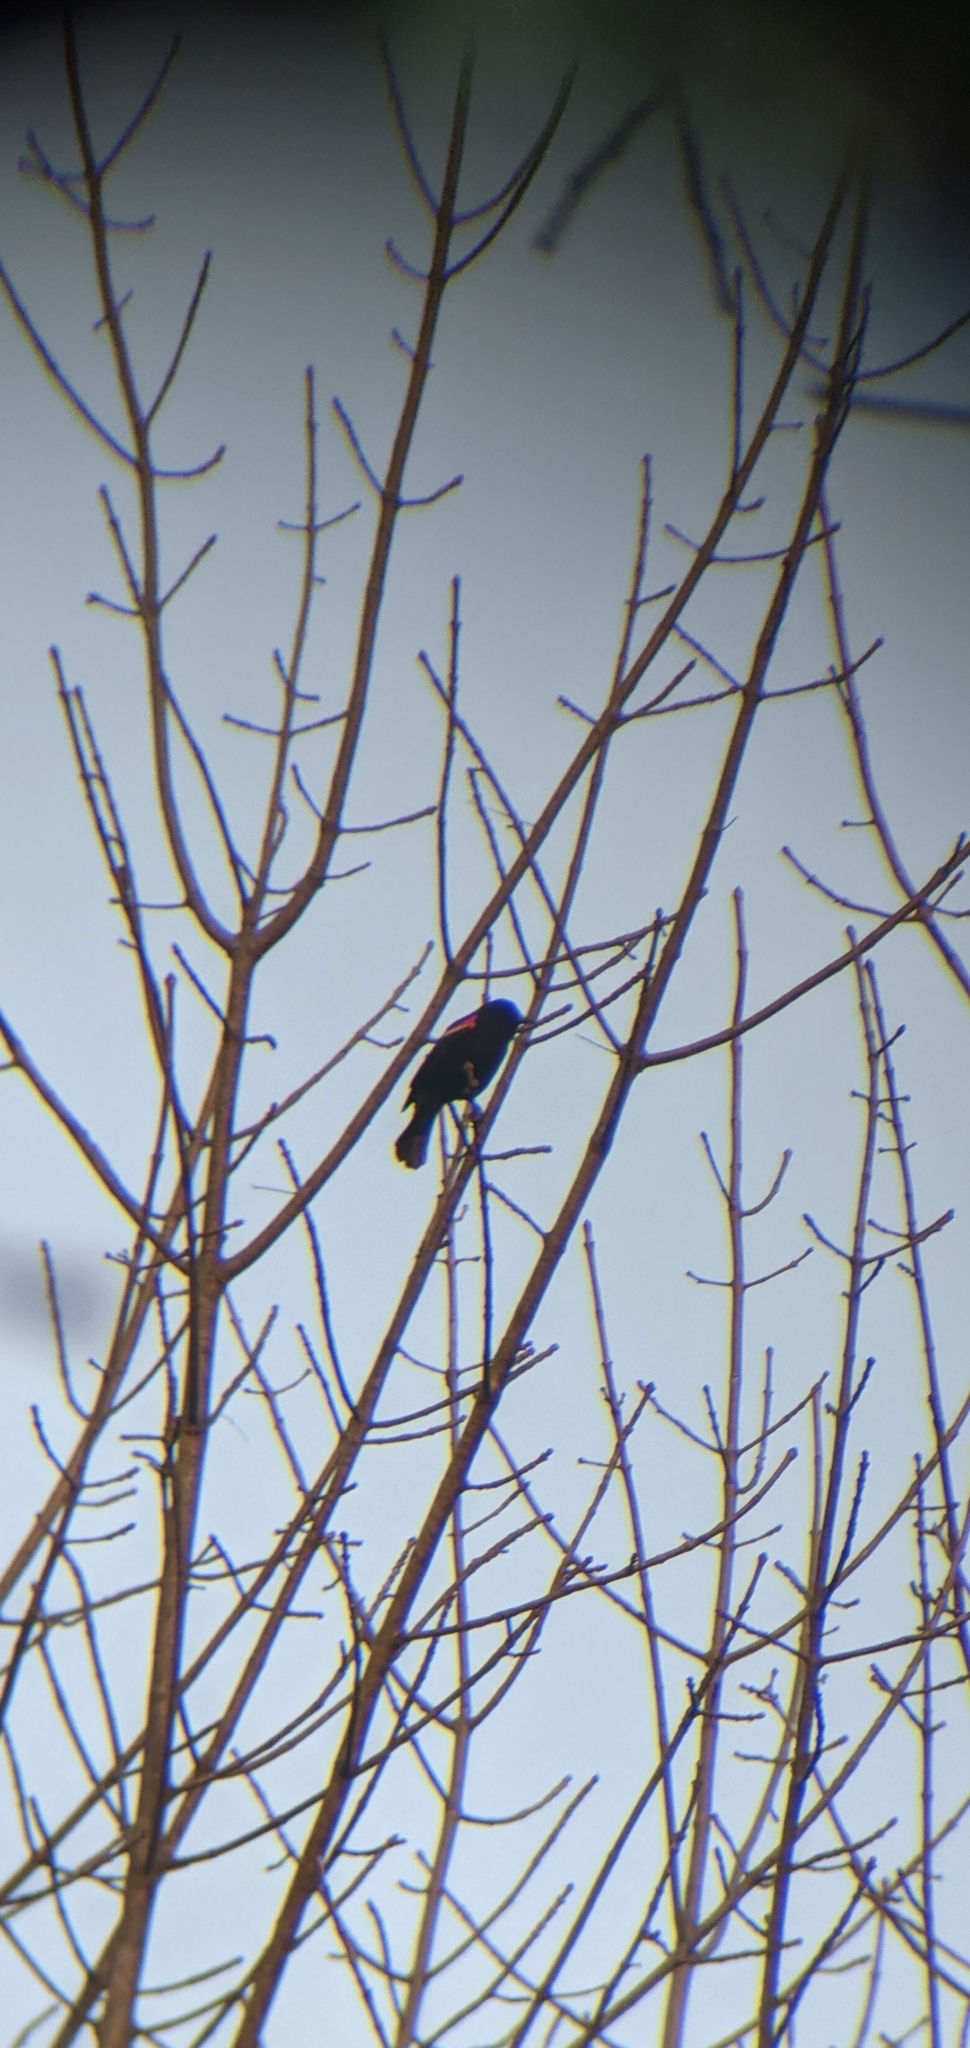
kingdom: Animalia
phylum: Chordata
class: Aves
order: Passeriformes
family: Icteridae
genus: Agelaius
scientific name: Agelaius phoeniceus
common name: Red-winged blackbird
